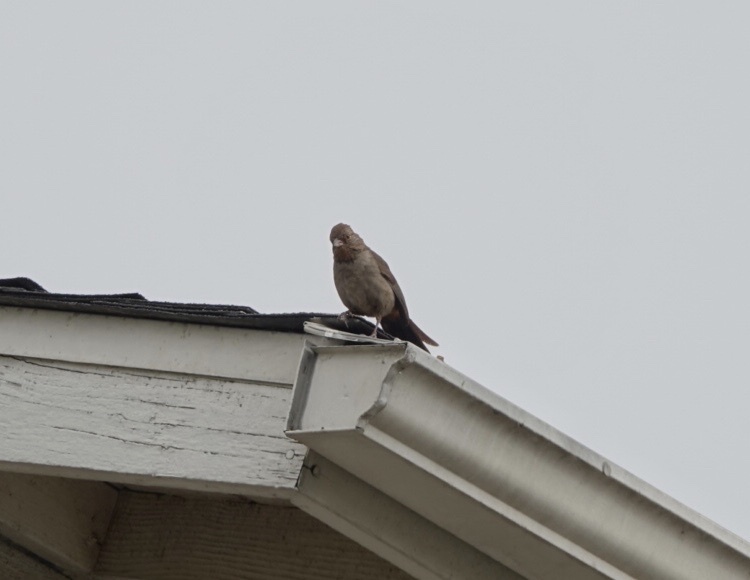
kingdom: Animalia
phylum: Chordata
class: Aves
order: Passeriformes
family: Passerellidae
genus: Melozone
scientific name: Melozone crissalis
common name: California towhee
